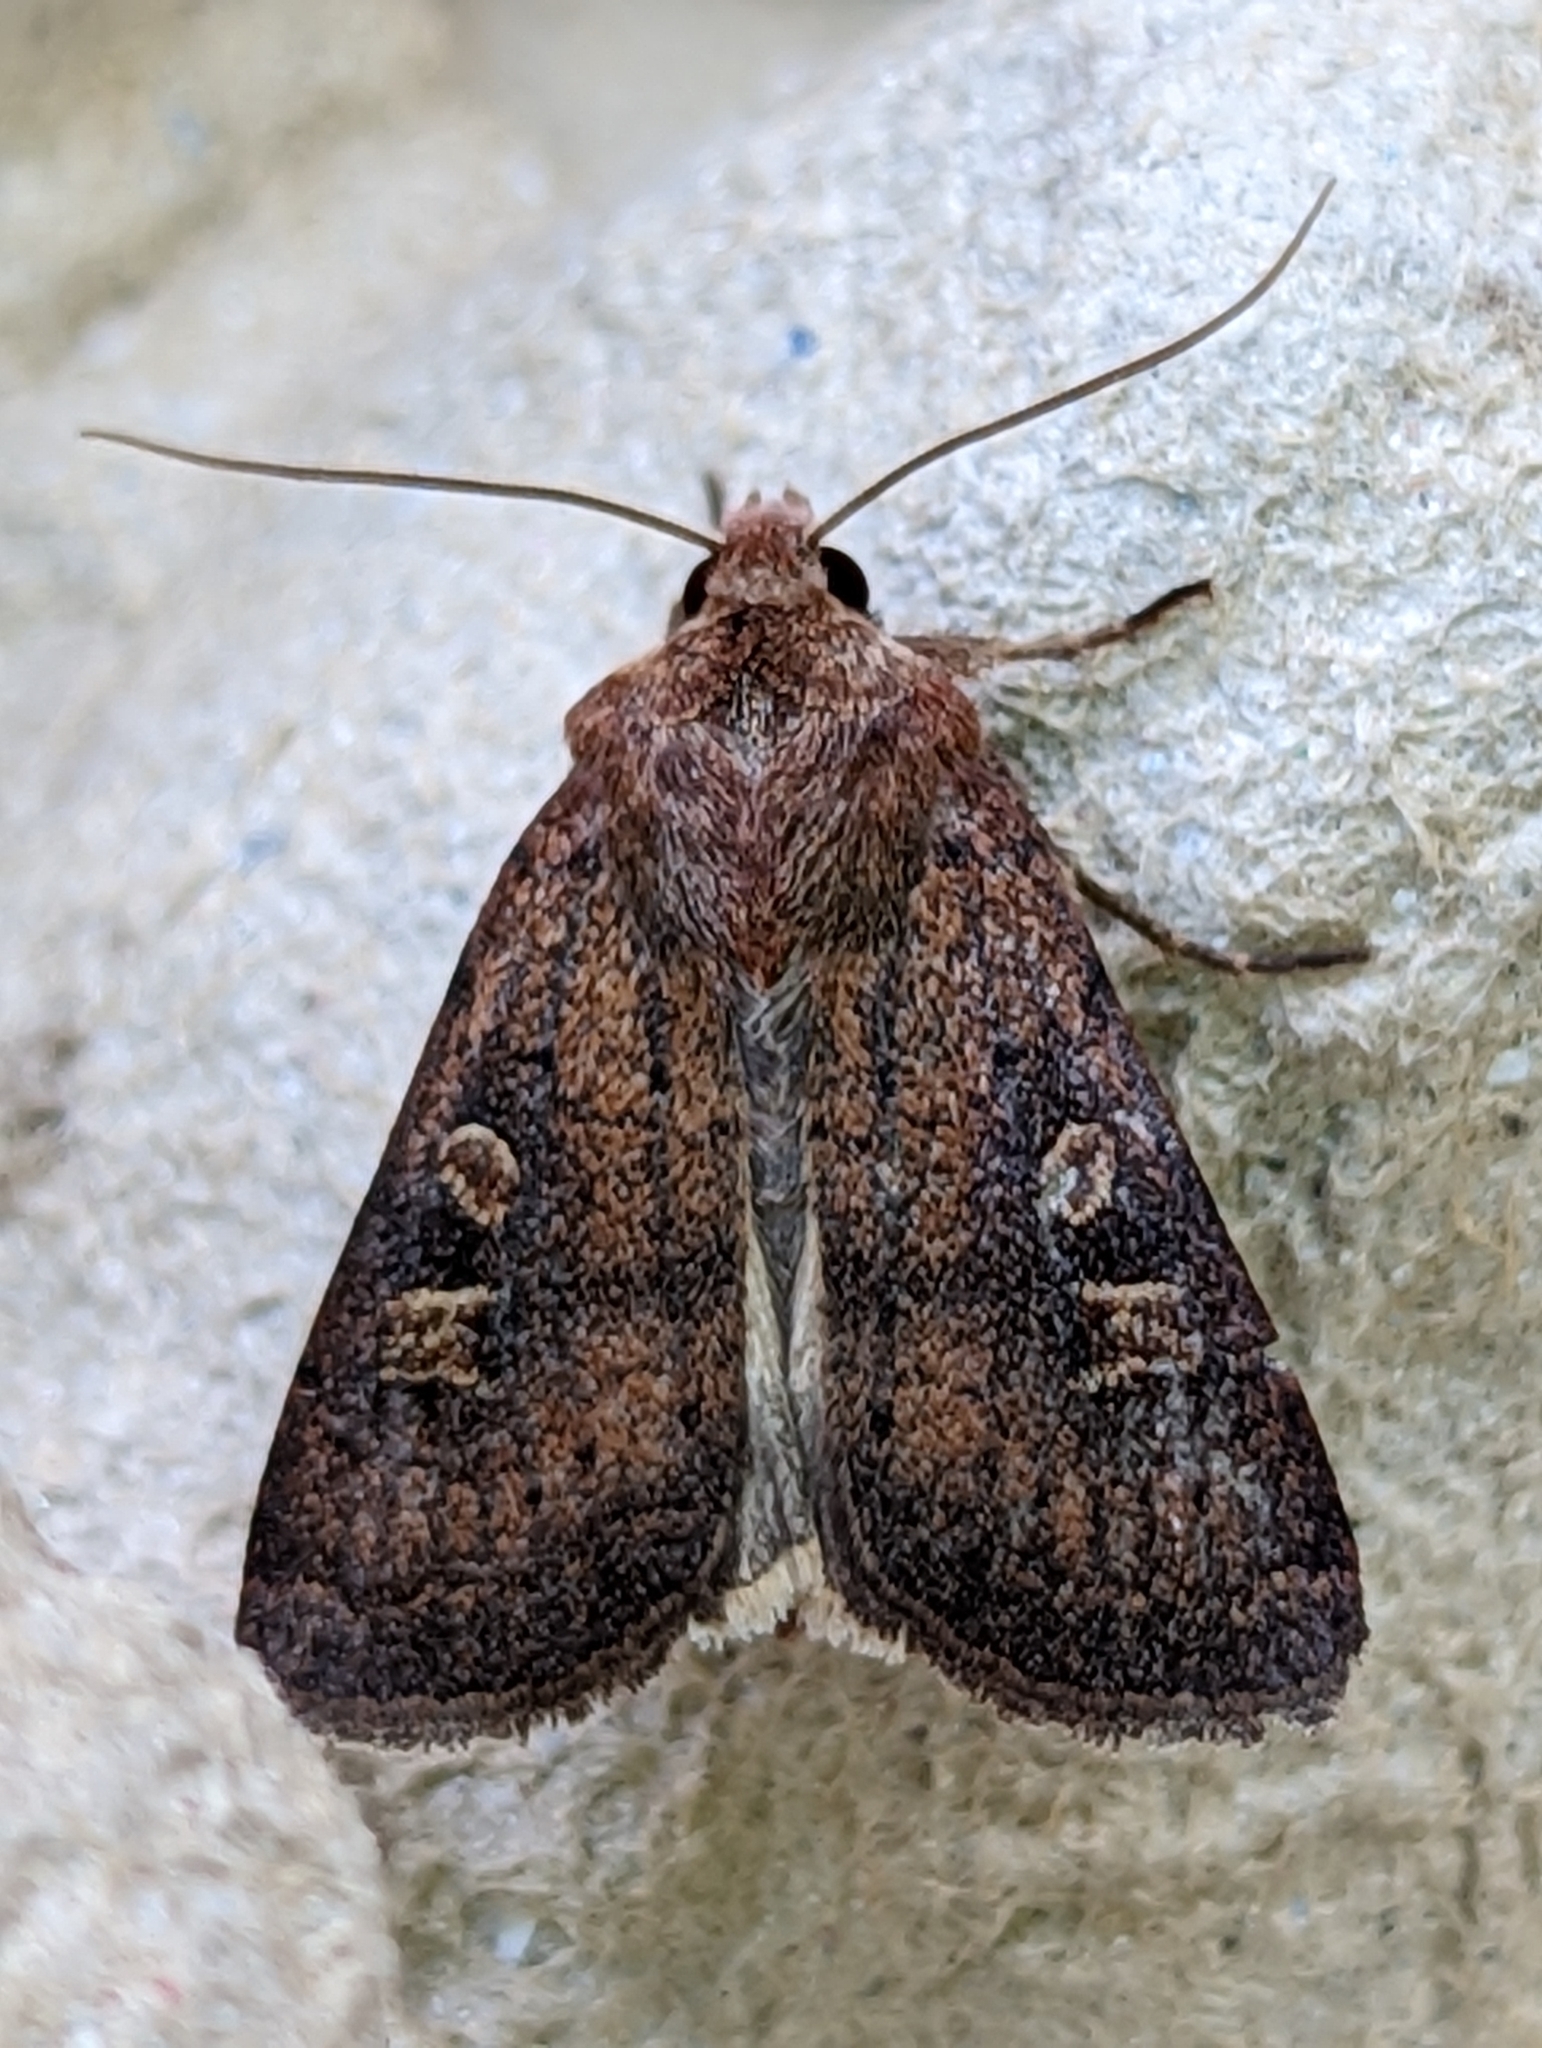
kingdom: Animalia
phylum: Arthropoda
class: Insecta
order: Lepidoptera
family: Noctuidae
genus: Xestia
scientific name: Xestia xanthographa
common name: Square-spot rustic
